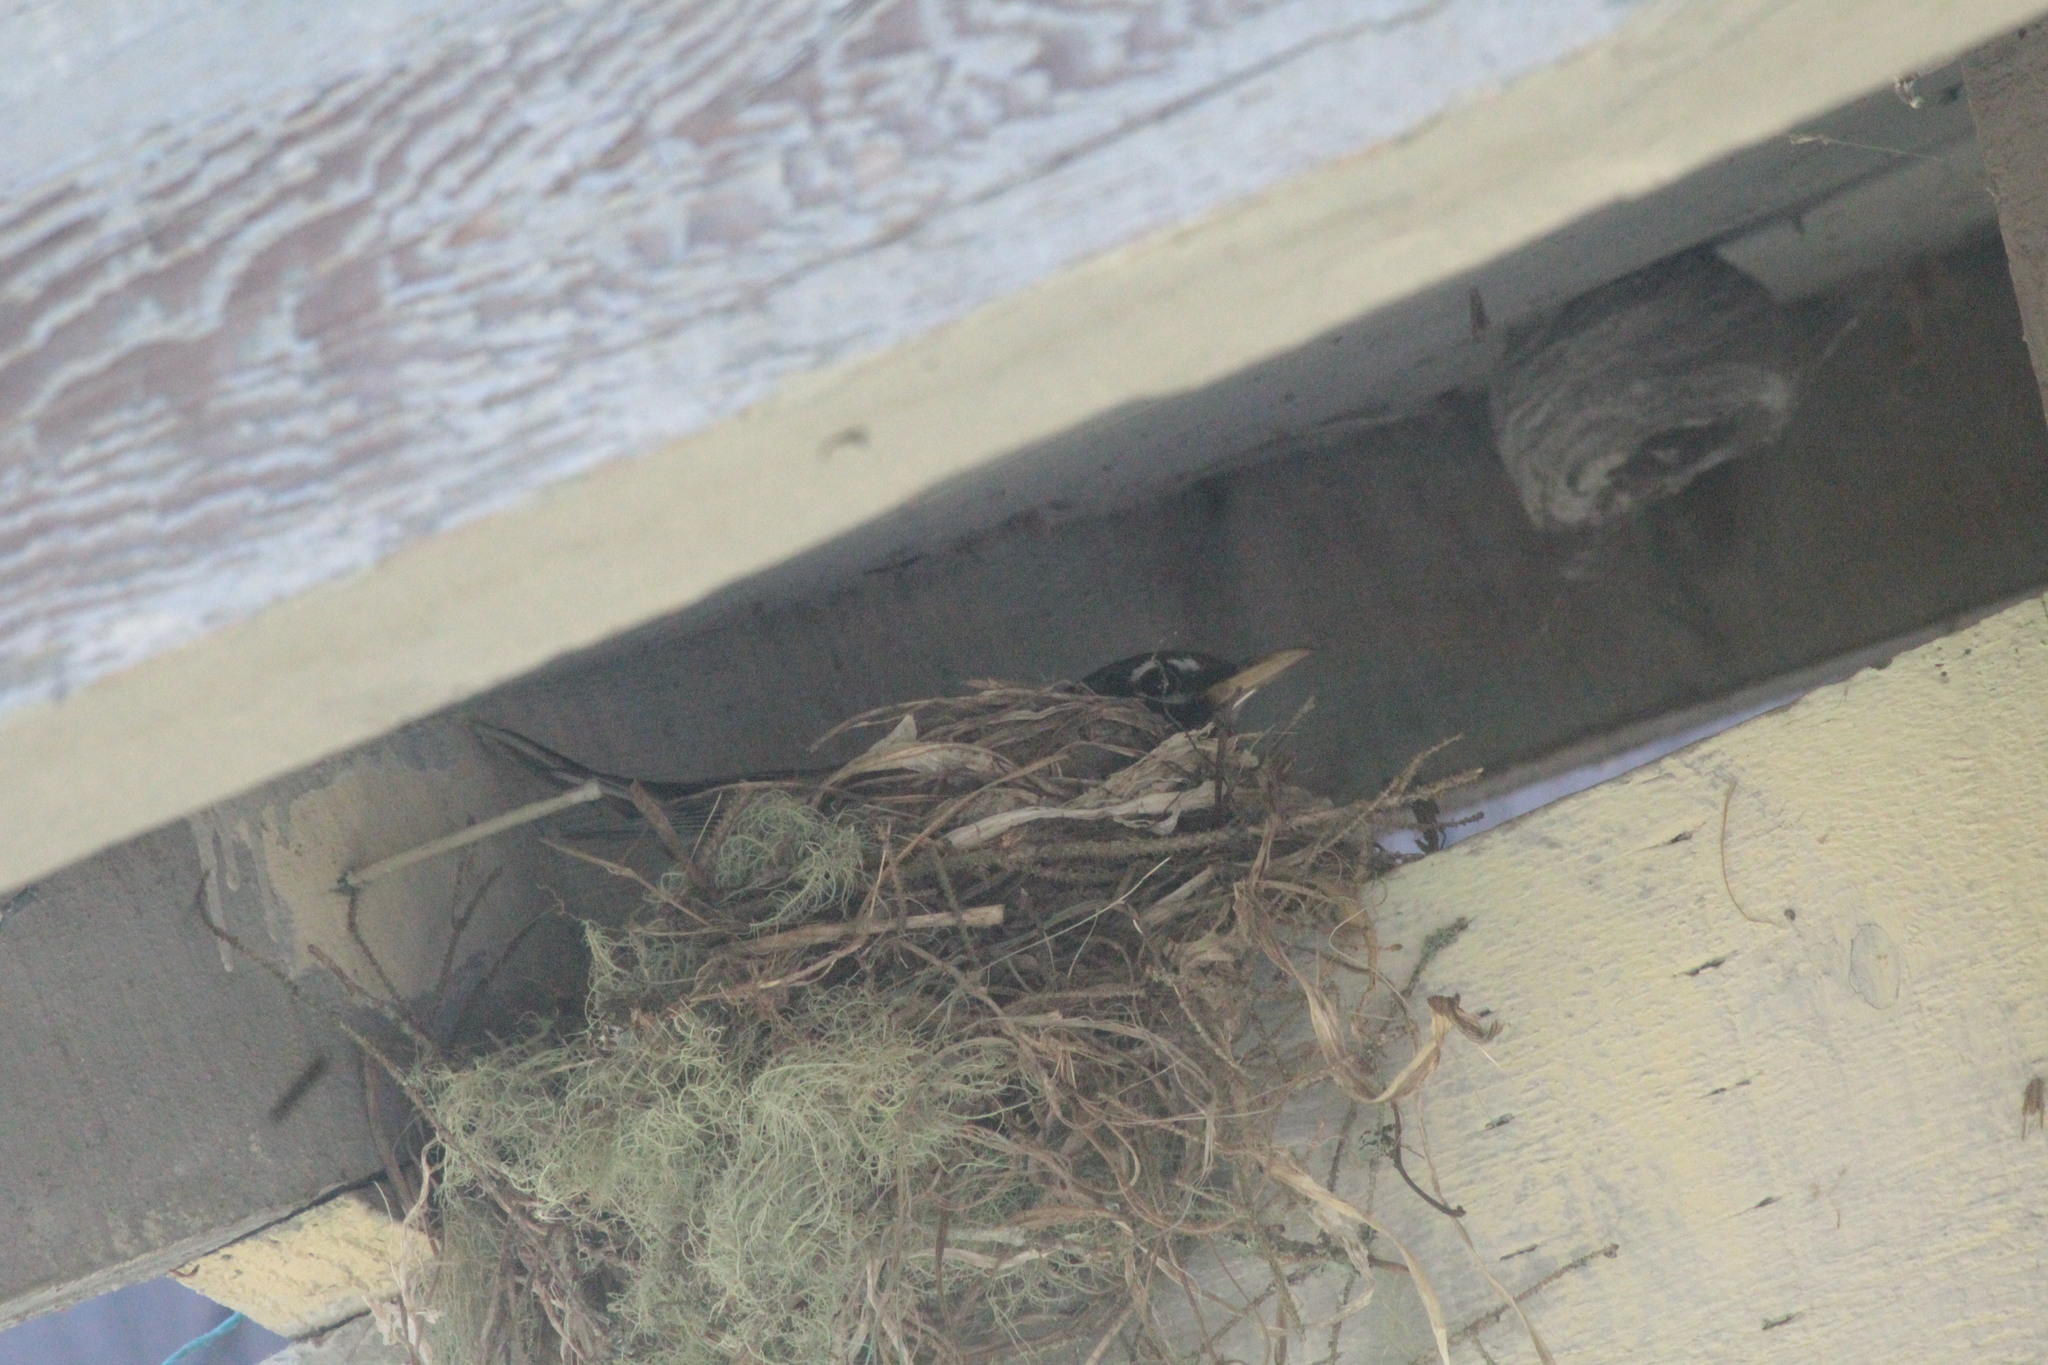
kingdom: Animalia
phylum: Chordata
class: Aves
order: Passeriformes
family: Turdidae
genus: Turdus
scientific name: Turdus migratorius
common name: American robin
